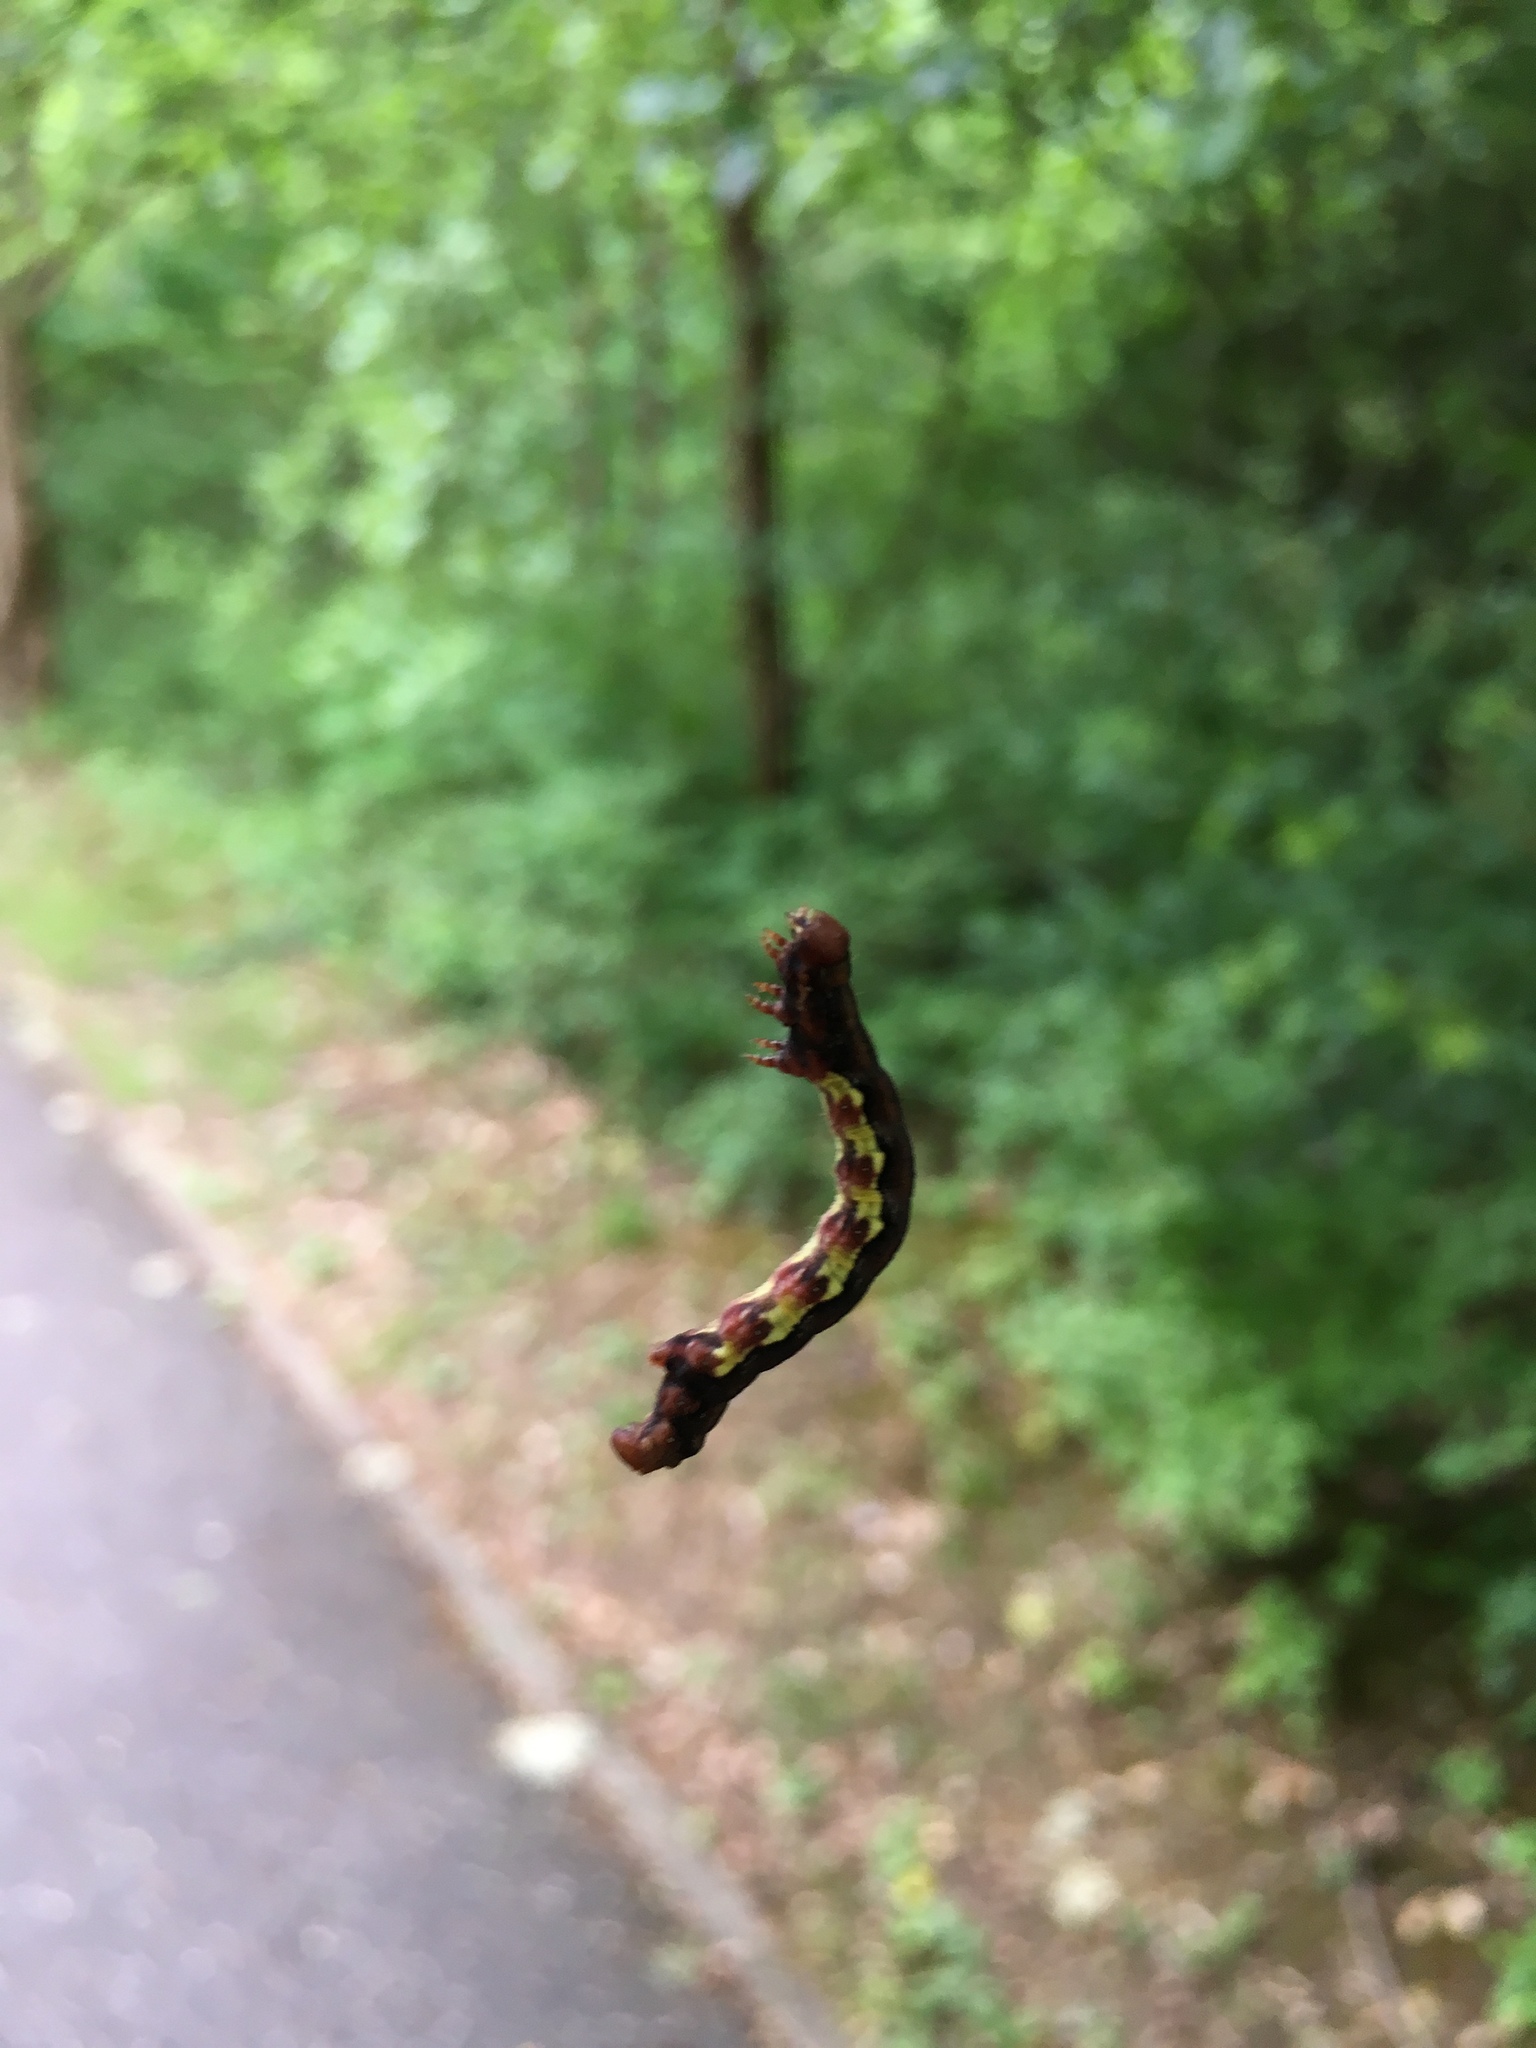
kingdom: Animalia
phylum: Arthropoda
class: Insecta
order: Lepidoptera
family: Geometridae
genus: Erannis
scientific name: Erannis defoliaria
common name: Mottled umber
